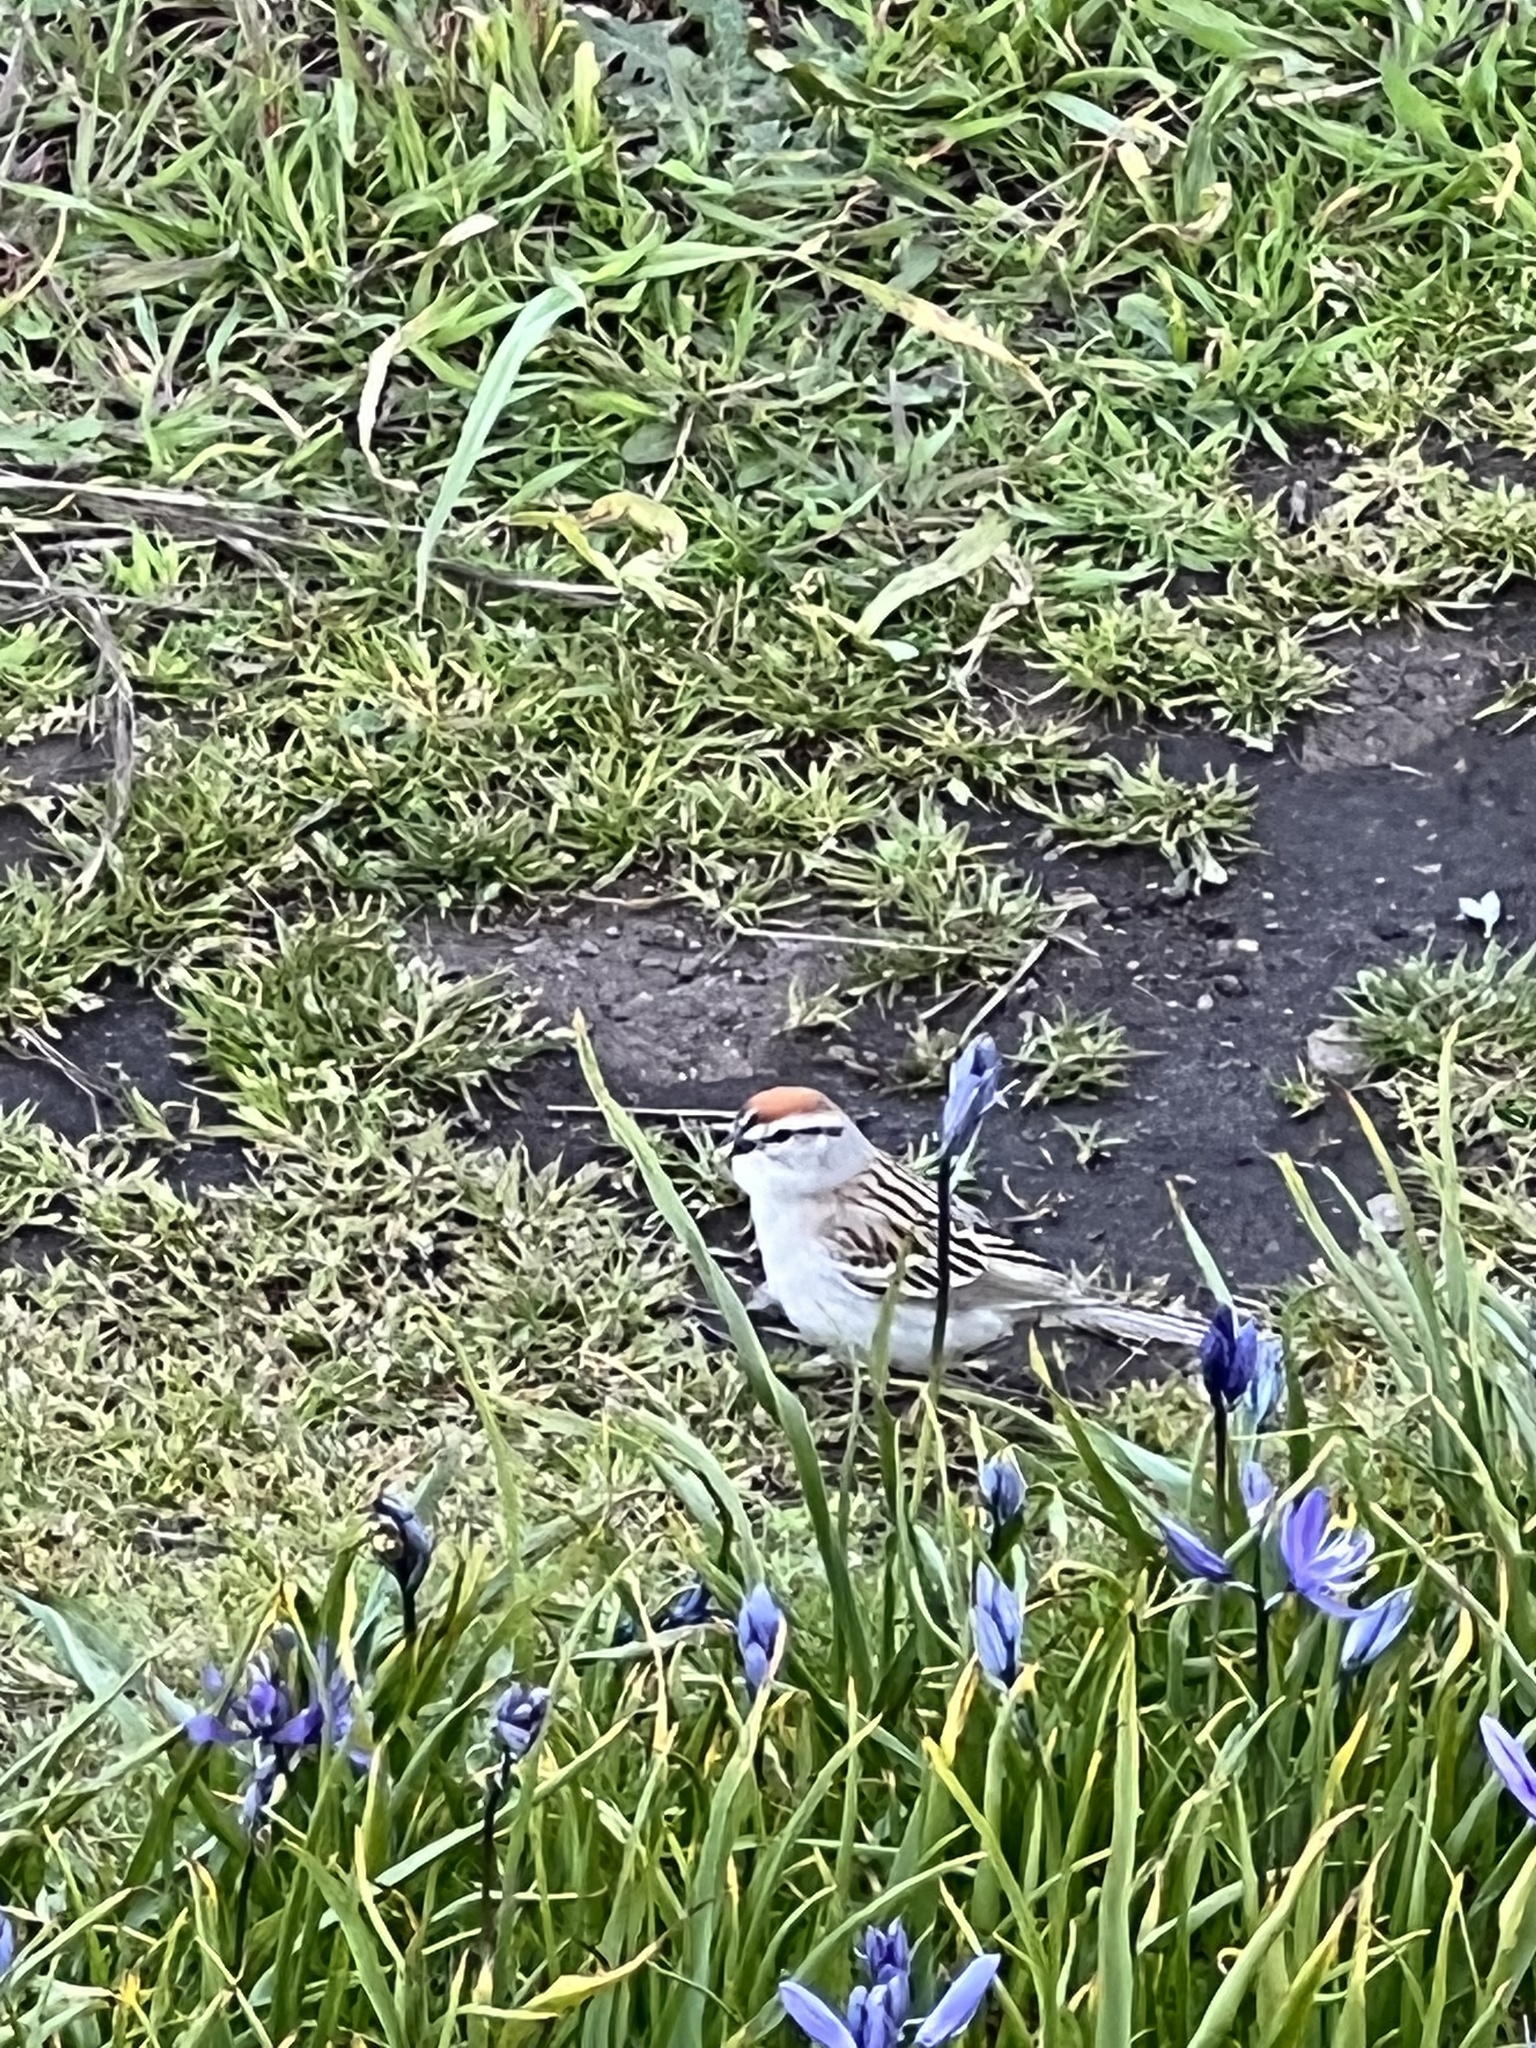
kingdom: Animalia
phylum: Chordata
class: Aves
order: Passeriformes
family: Passerellidae
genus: Spizella
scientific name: Spizella passerina
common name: Chipping sparrow
